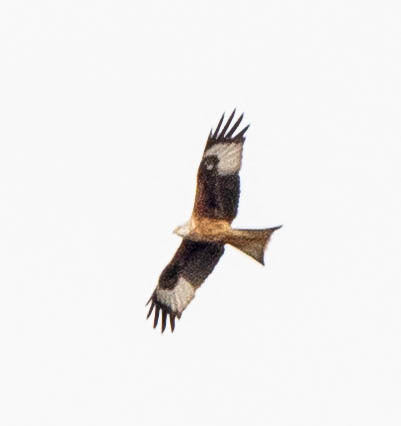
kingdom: Animalia
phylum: Chordata
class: Aves
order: Accipitriformes
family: Accipitridae
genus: Milvus
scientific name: Milvus milvus
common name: Red kite
